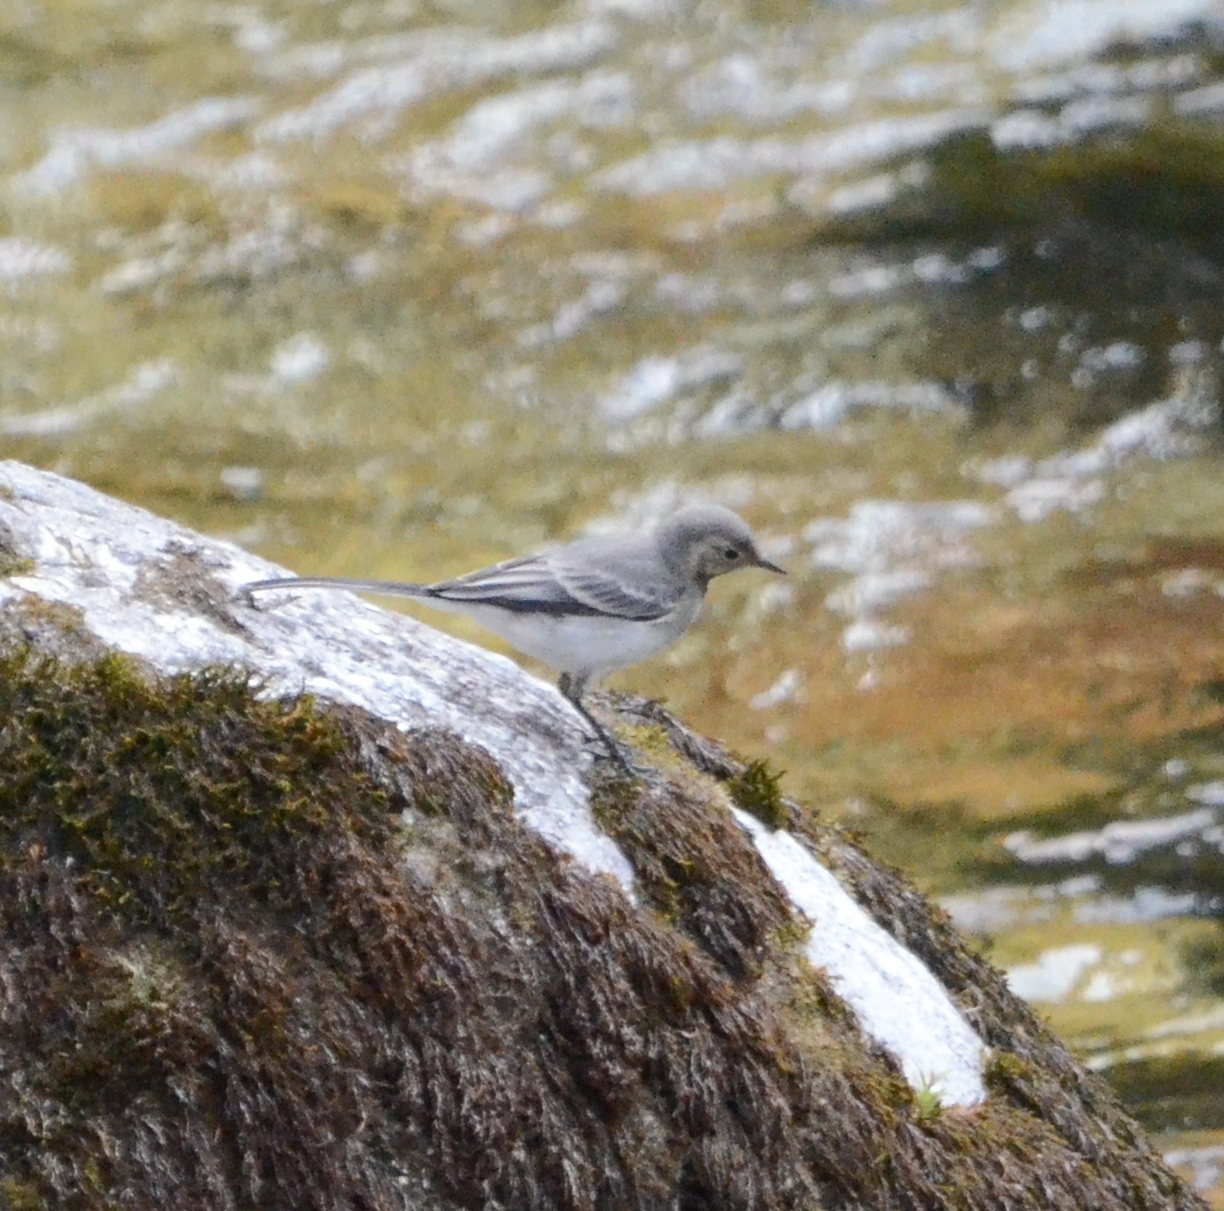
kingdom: Animalia
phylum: Chordata
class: Aves
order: Passeriformes
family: Motacillidae
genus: Motacilla
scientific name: Motacilla alba
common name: White wagtail
